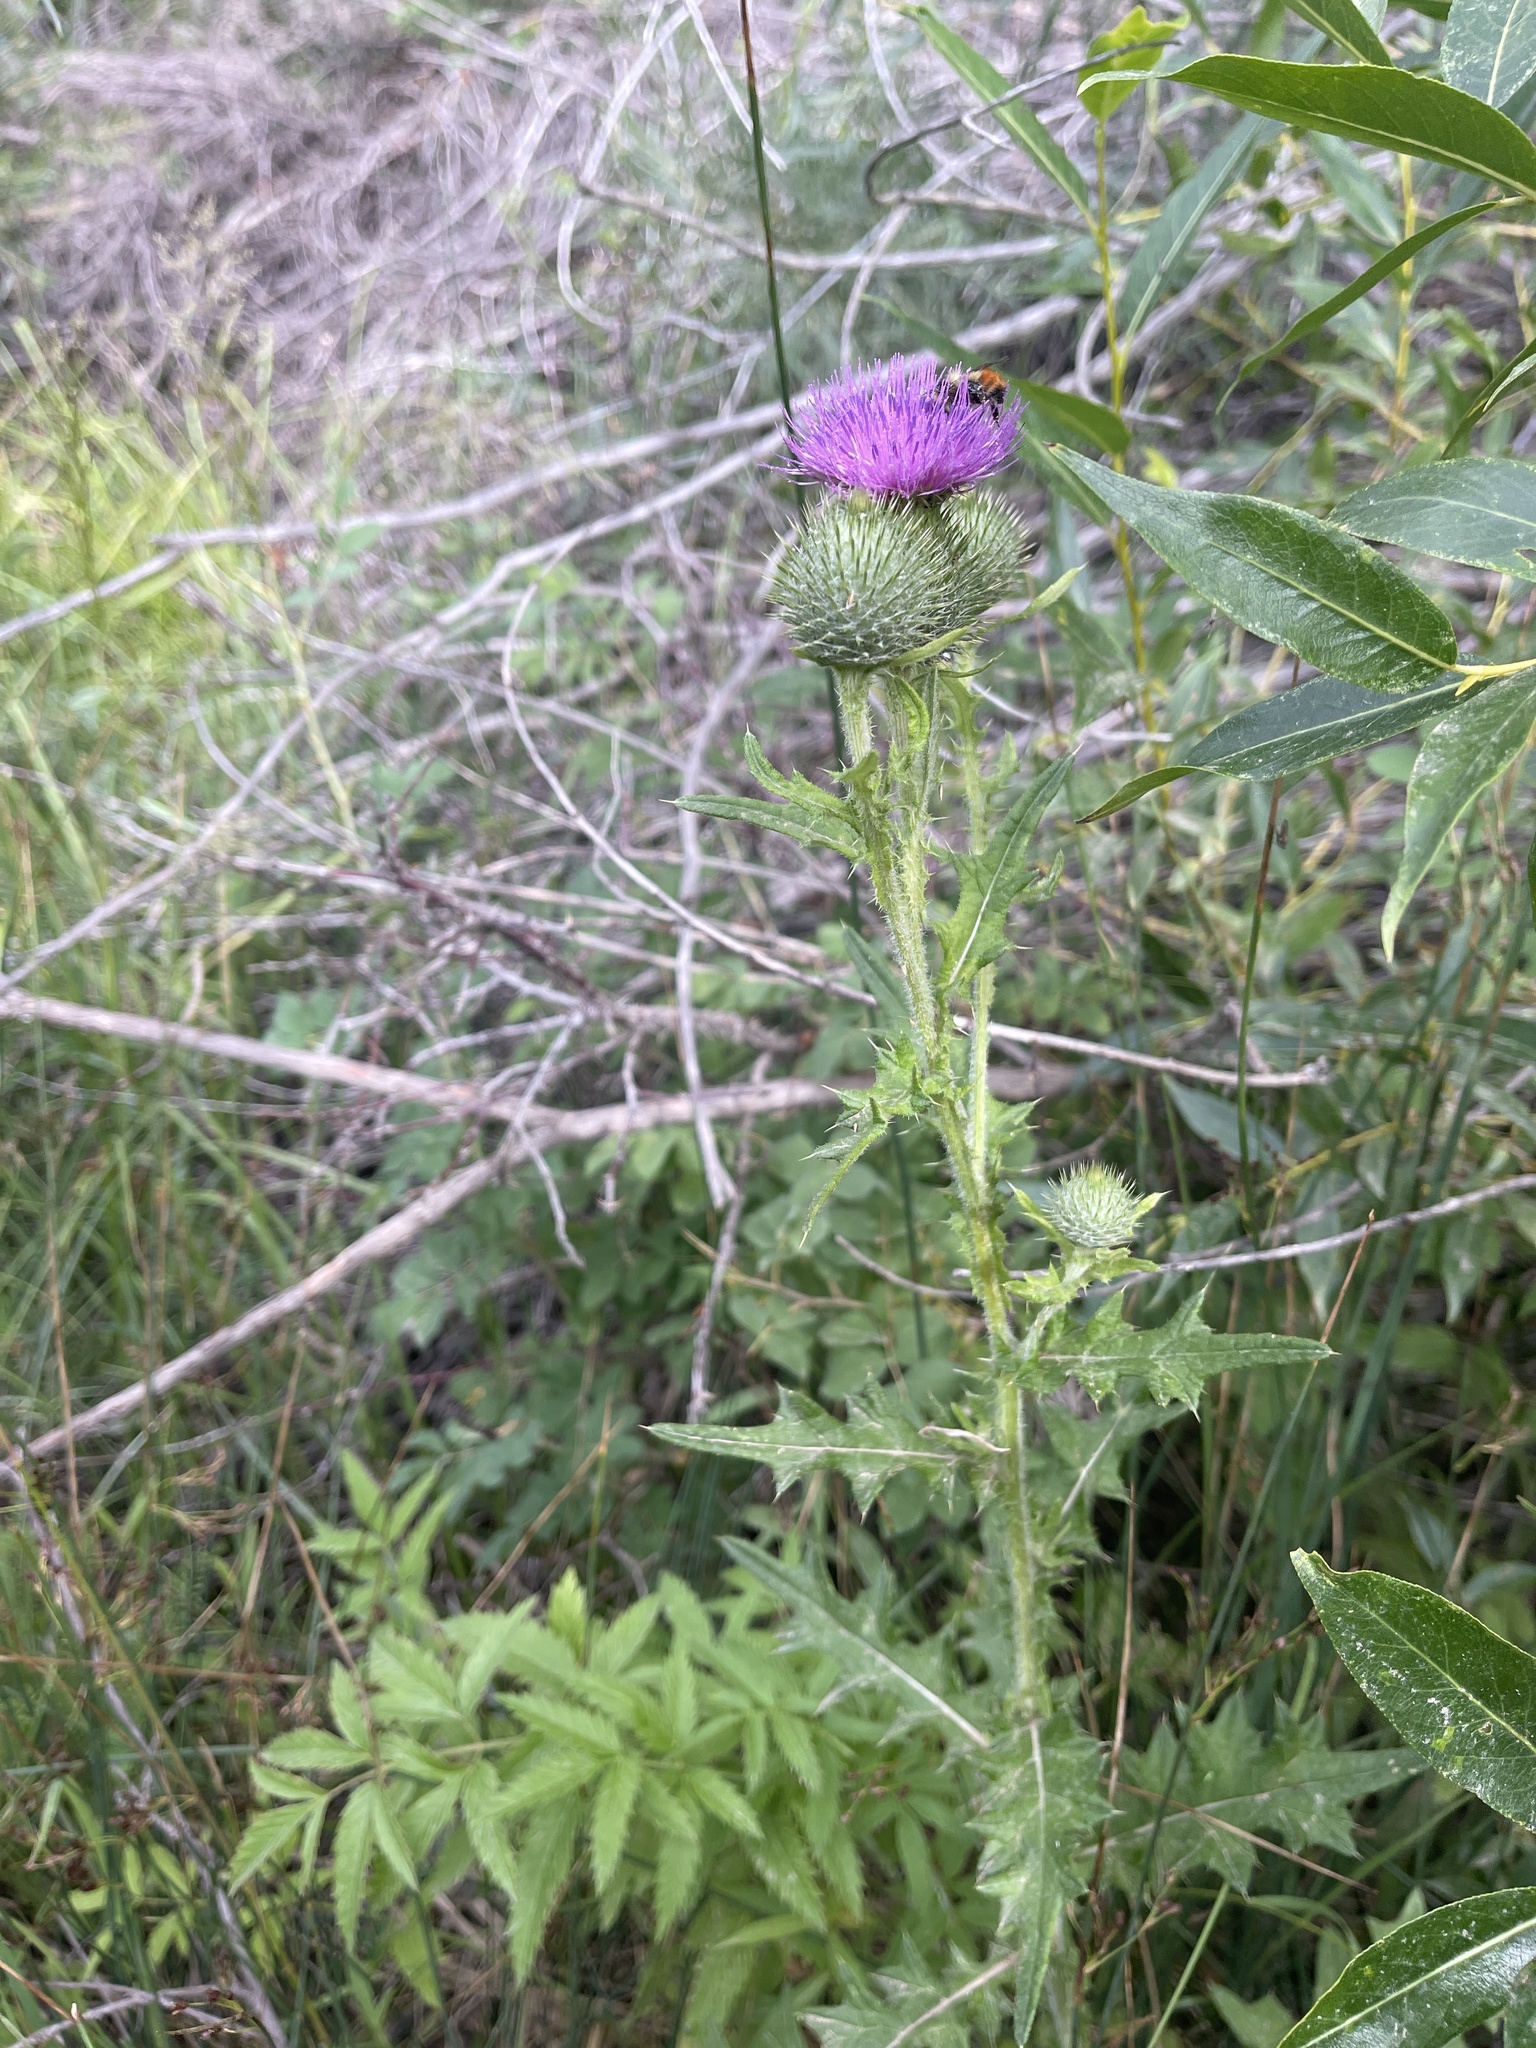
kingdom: Plantae
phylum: Tracheophyta
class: Magnoliopsida
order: Asterales
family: Asteraceae
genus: Cirsium
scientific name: Cirsium vulgare
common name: Bull thistle
